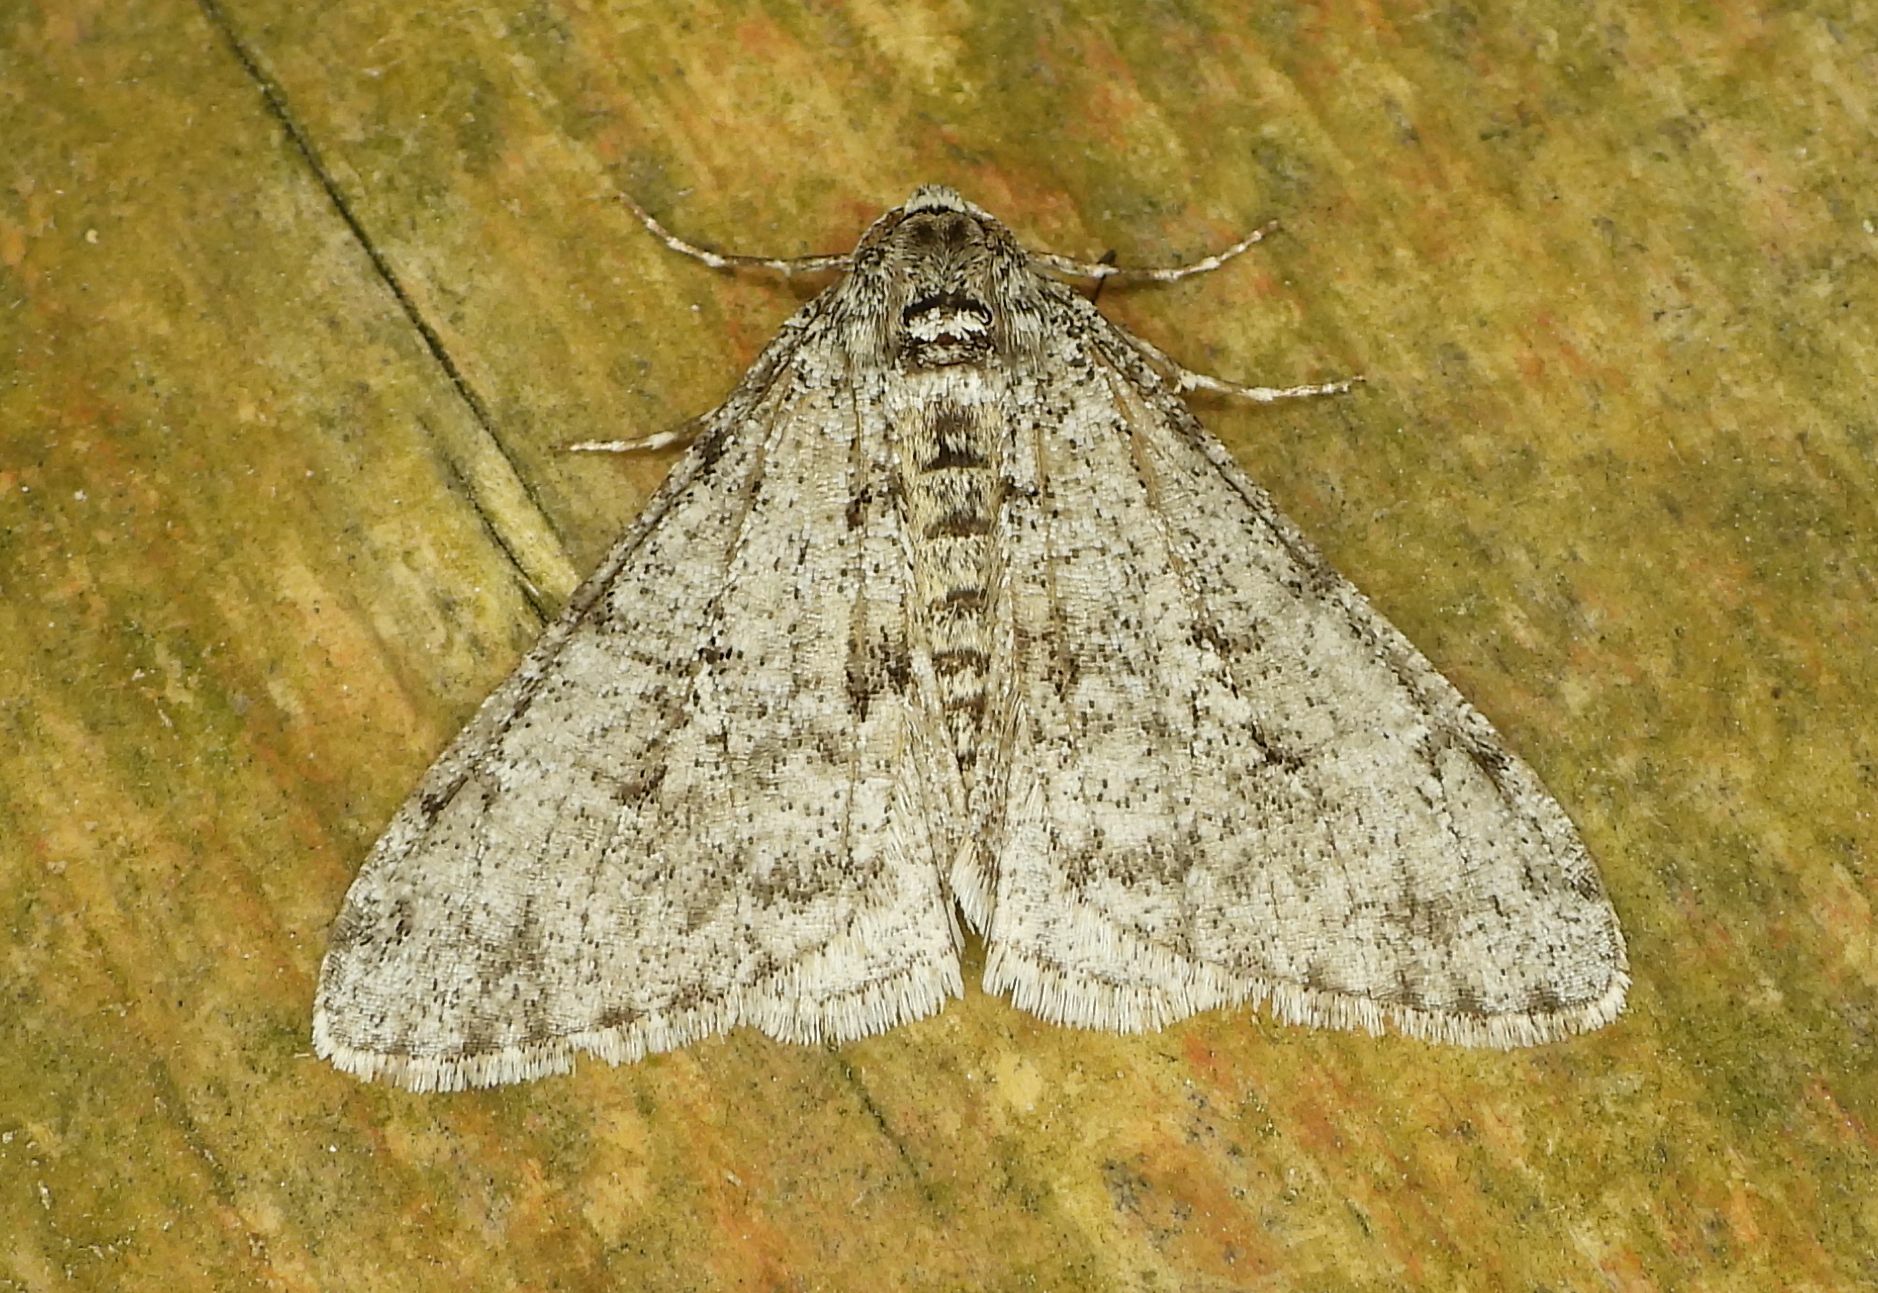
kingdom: Animalia
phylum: Arthropoda
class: Insecta
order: Lepidoptera
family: Geometridae
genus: Phigalia
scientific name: Phigalia strigataria
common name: Small phigalia
